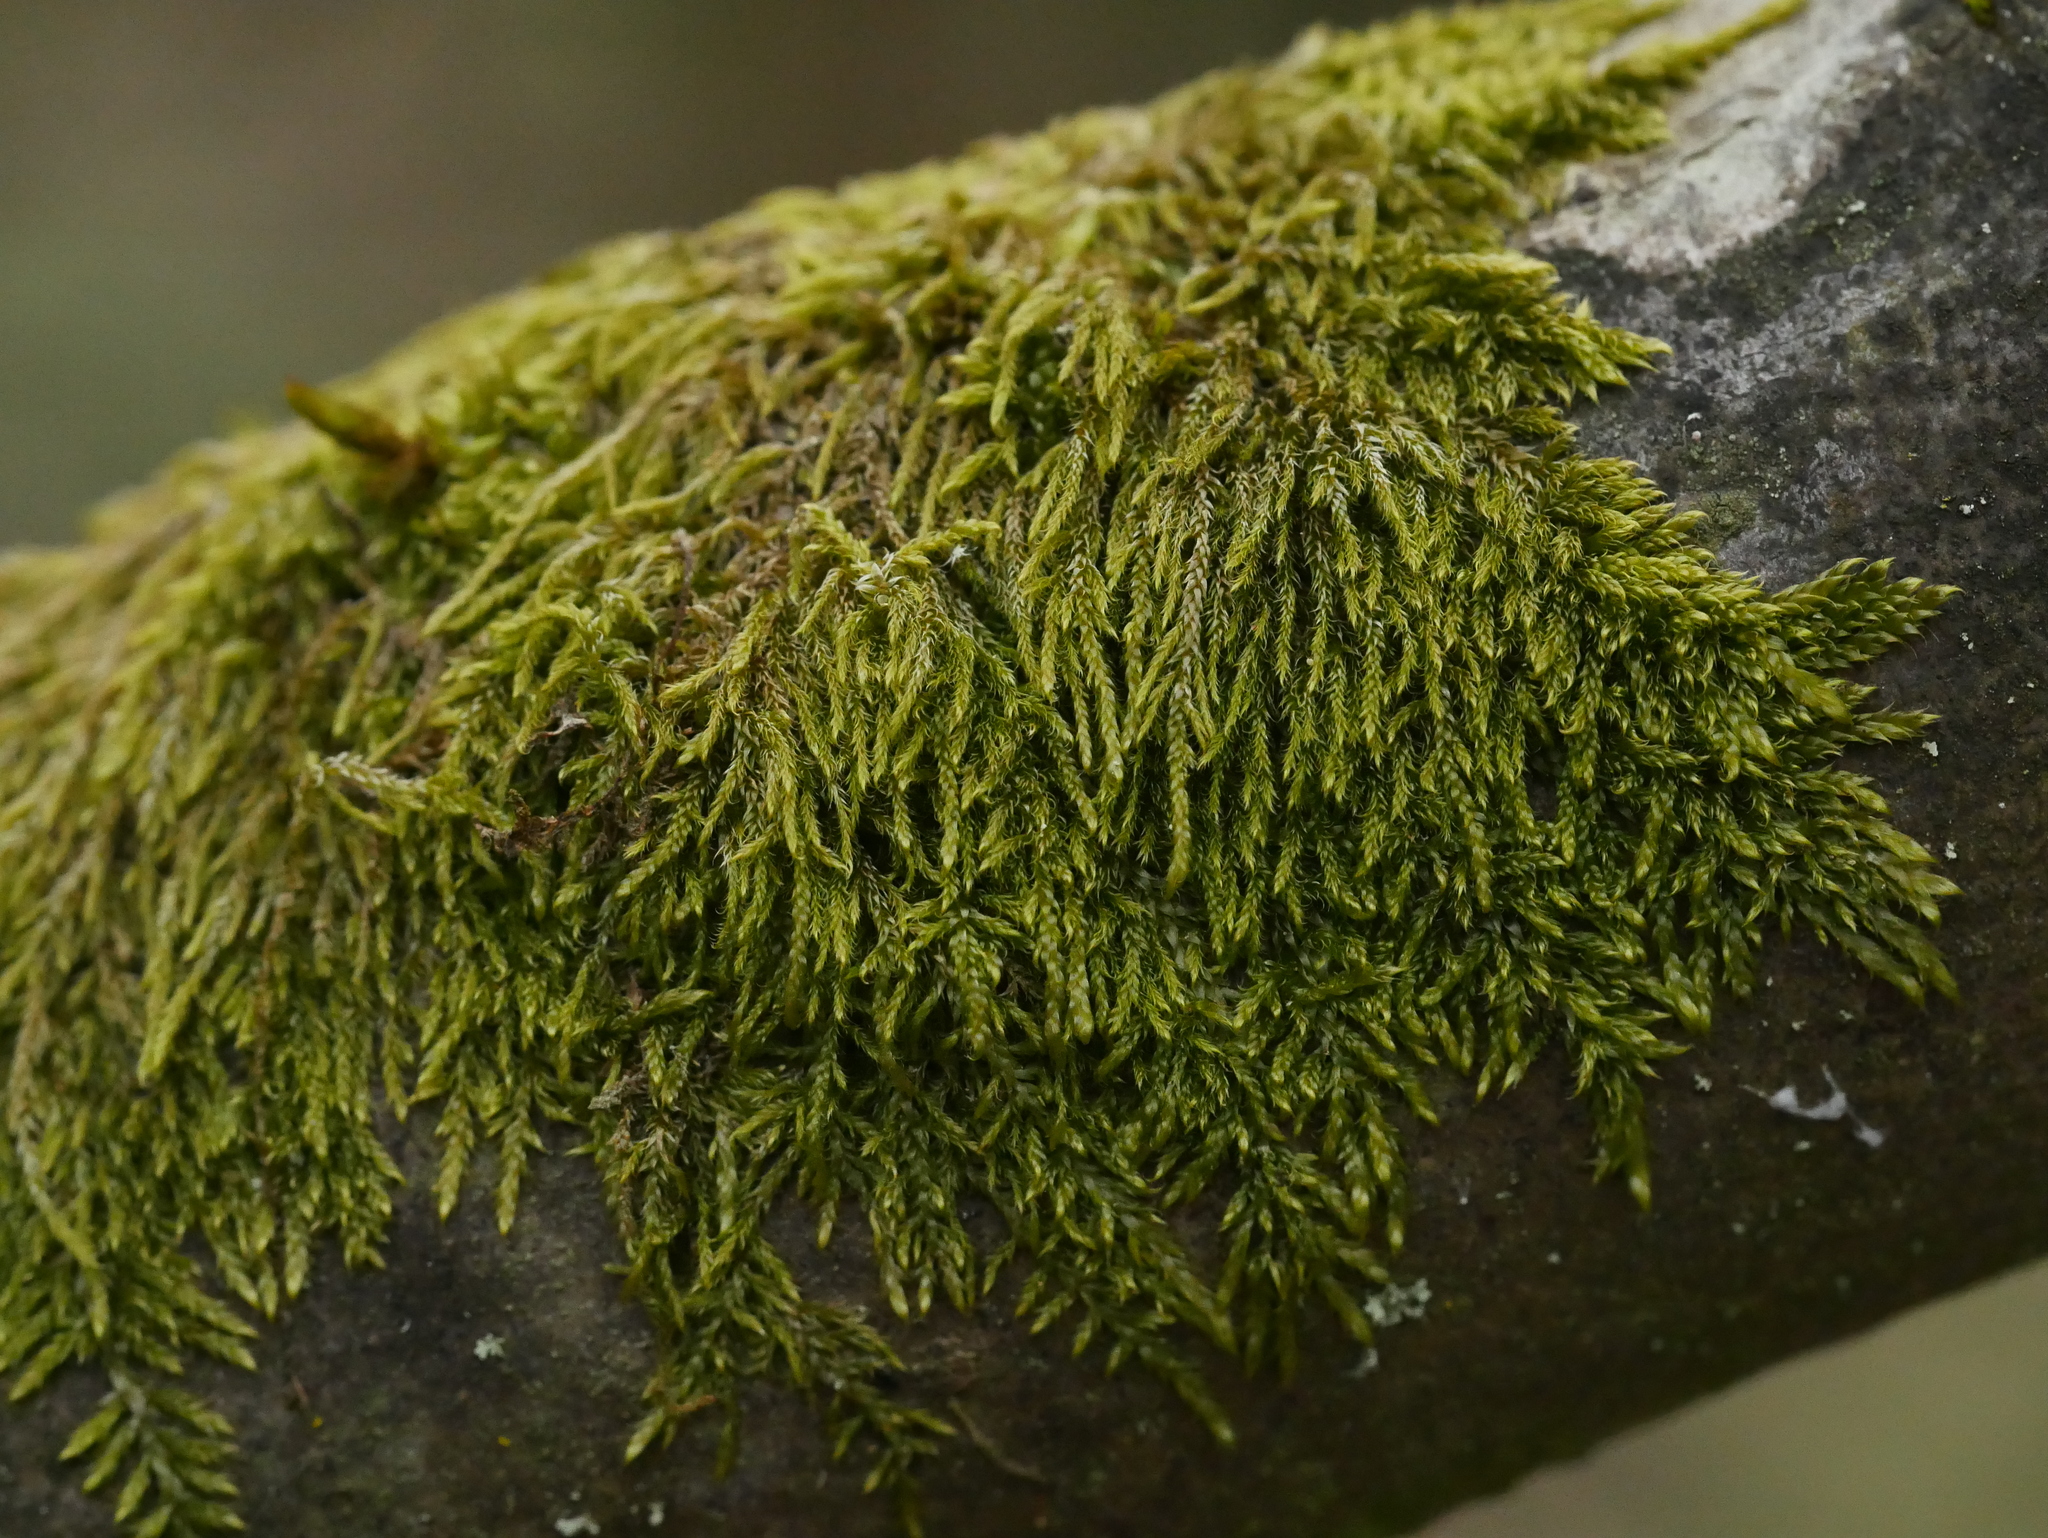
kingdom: Plantae
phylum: Bryophyta
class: Bryopsida
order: Hypnales
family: Hypnaceae
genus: Hypnum
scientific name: Hypnum cupressiforme
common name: Cypress-leaved plait-moss
